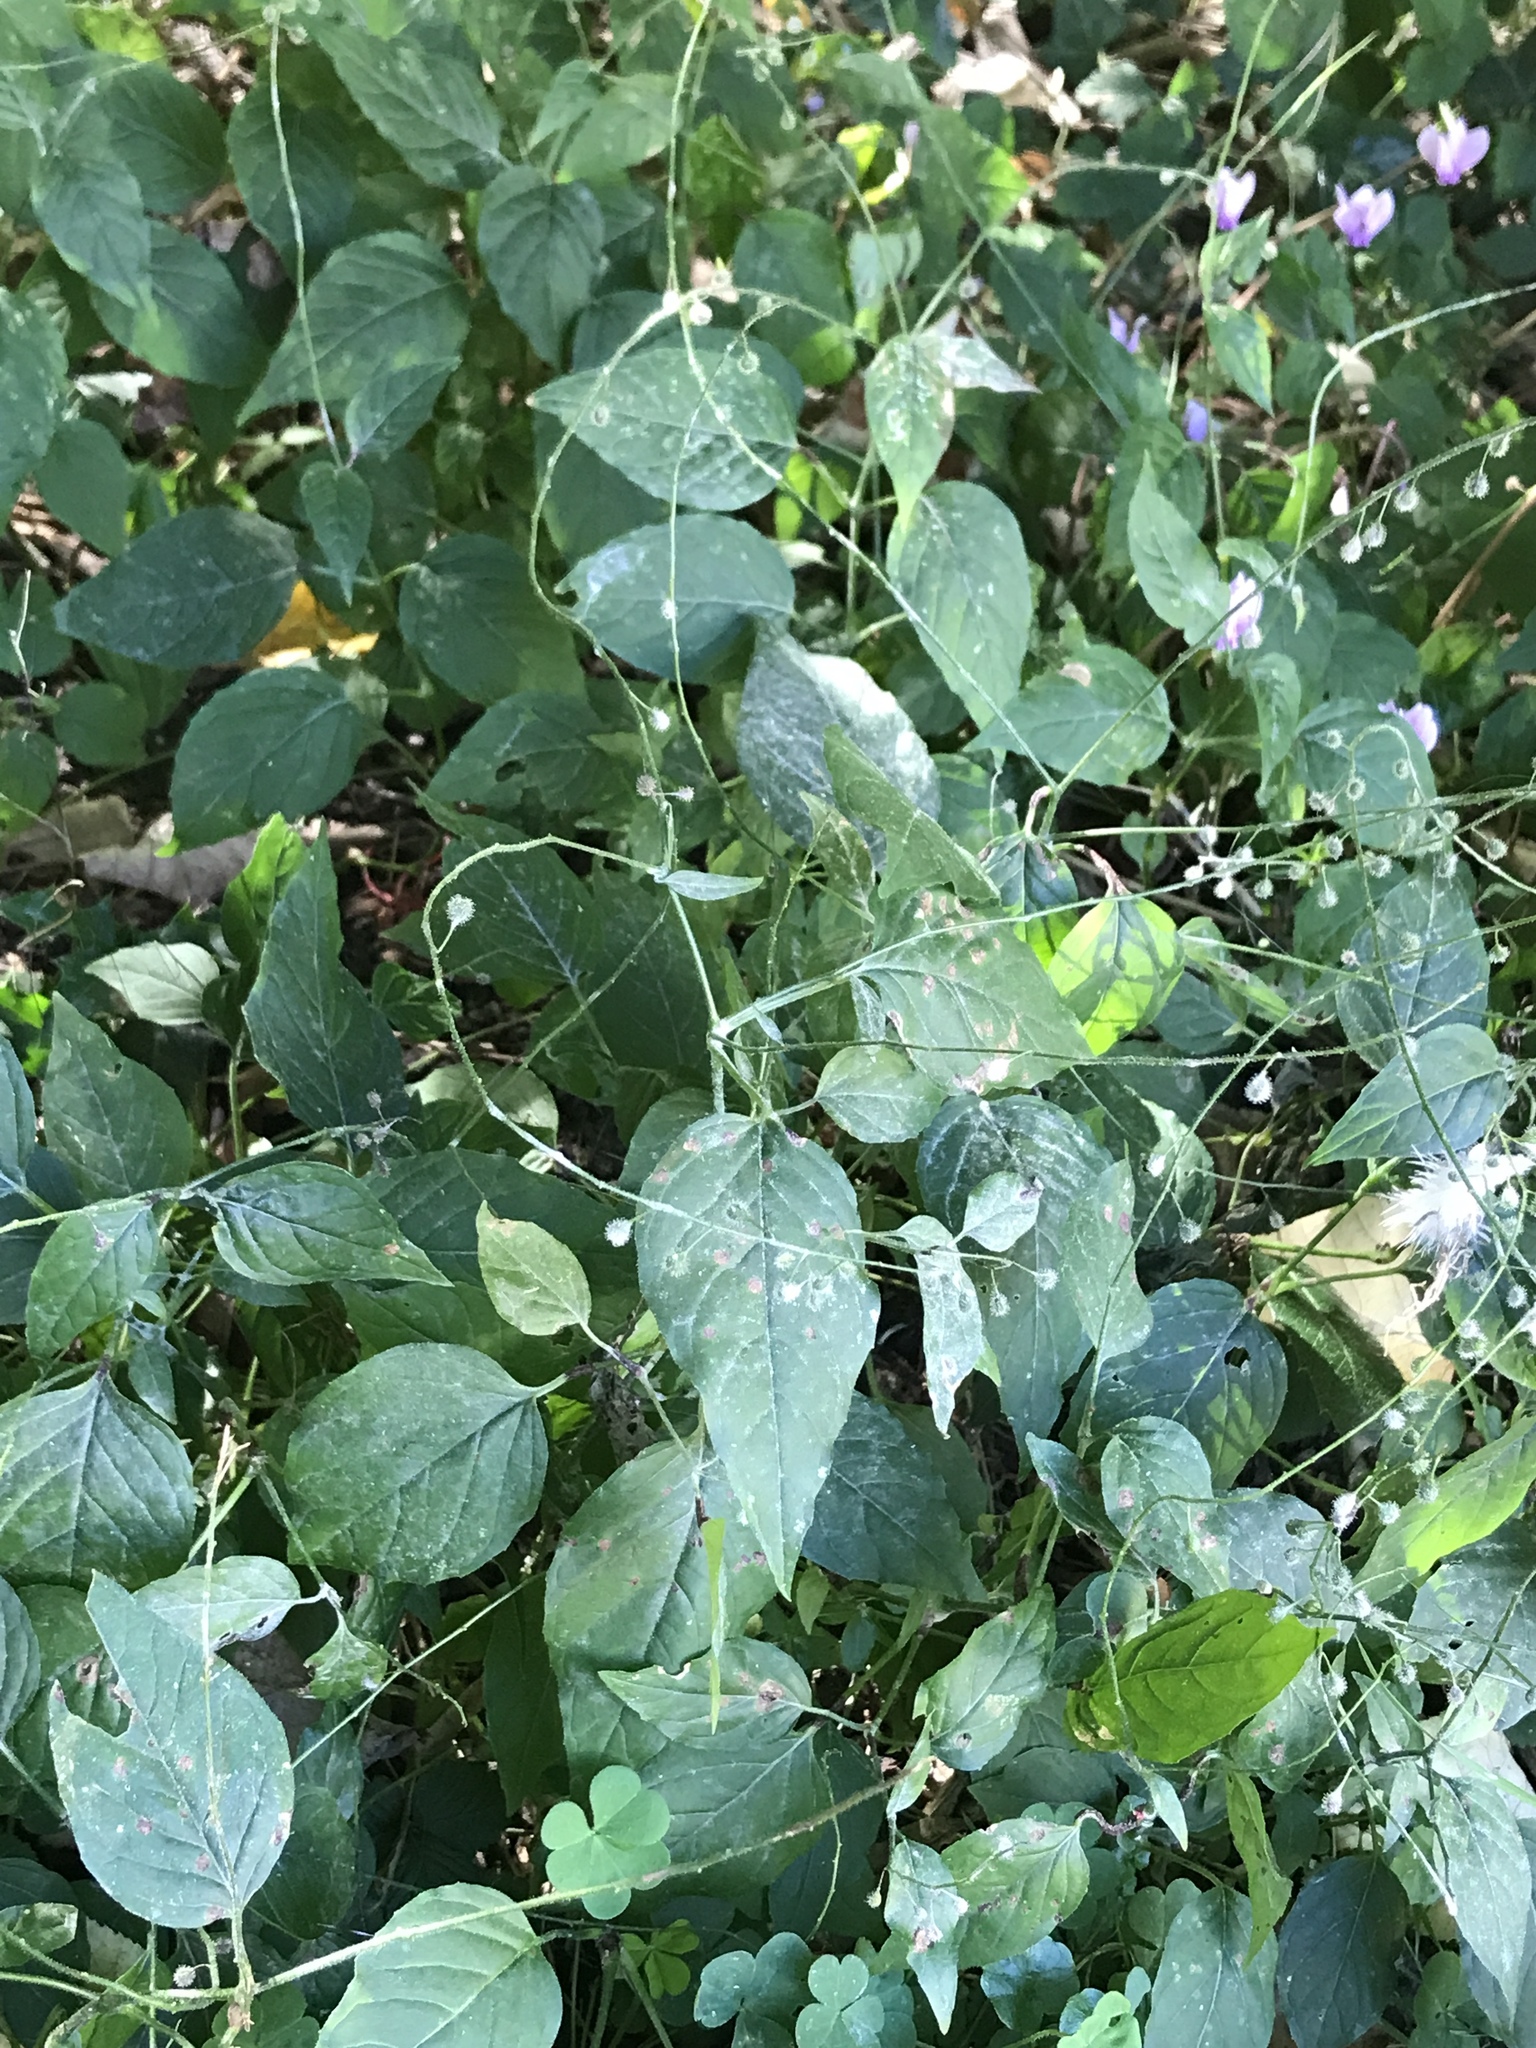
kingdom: Plantae
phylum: Tracheophyta
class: Magnoliopsida
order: Myrtales
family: Onagraceae
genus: Circaea
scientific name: Circaea lutetiana
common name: Enchanter's-nightshade
